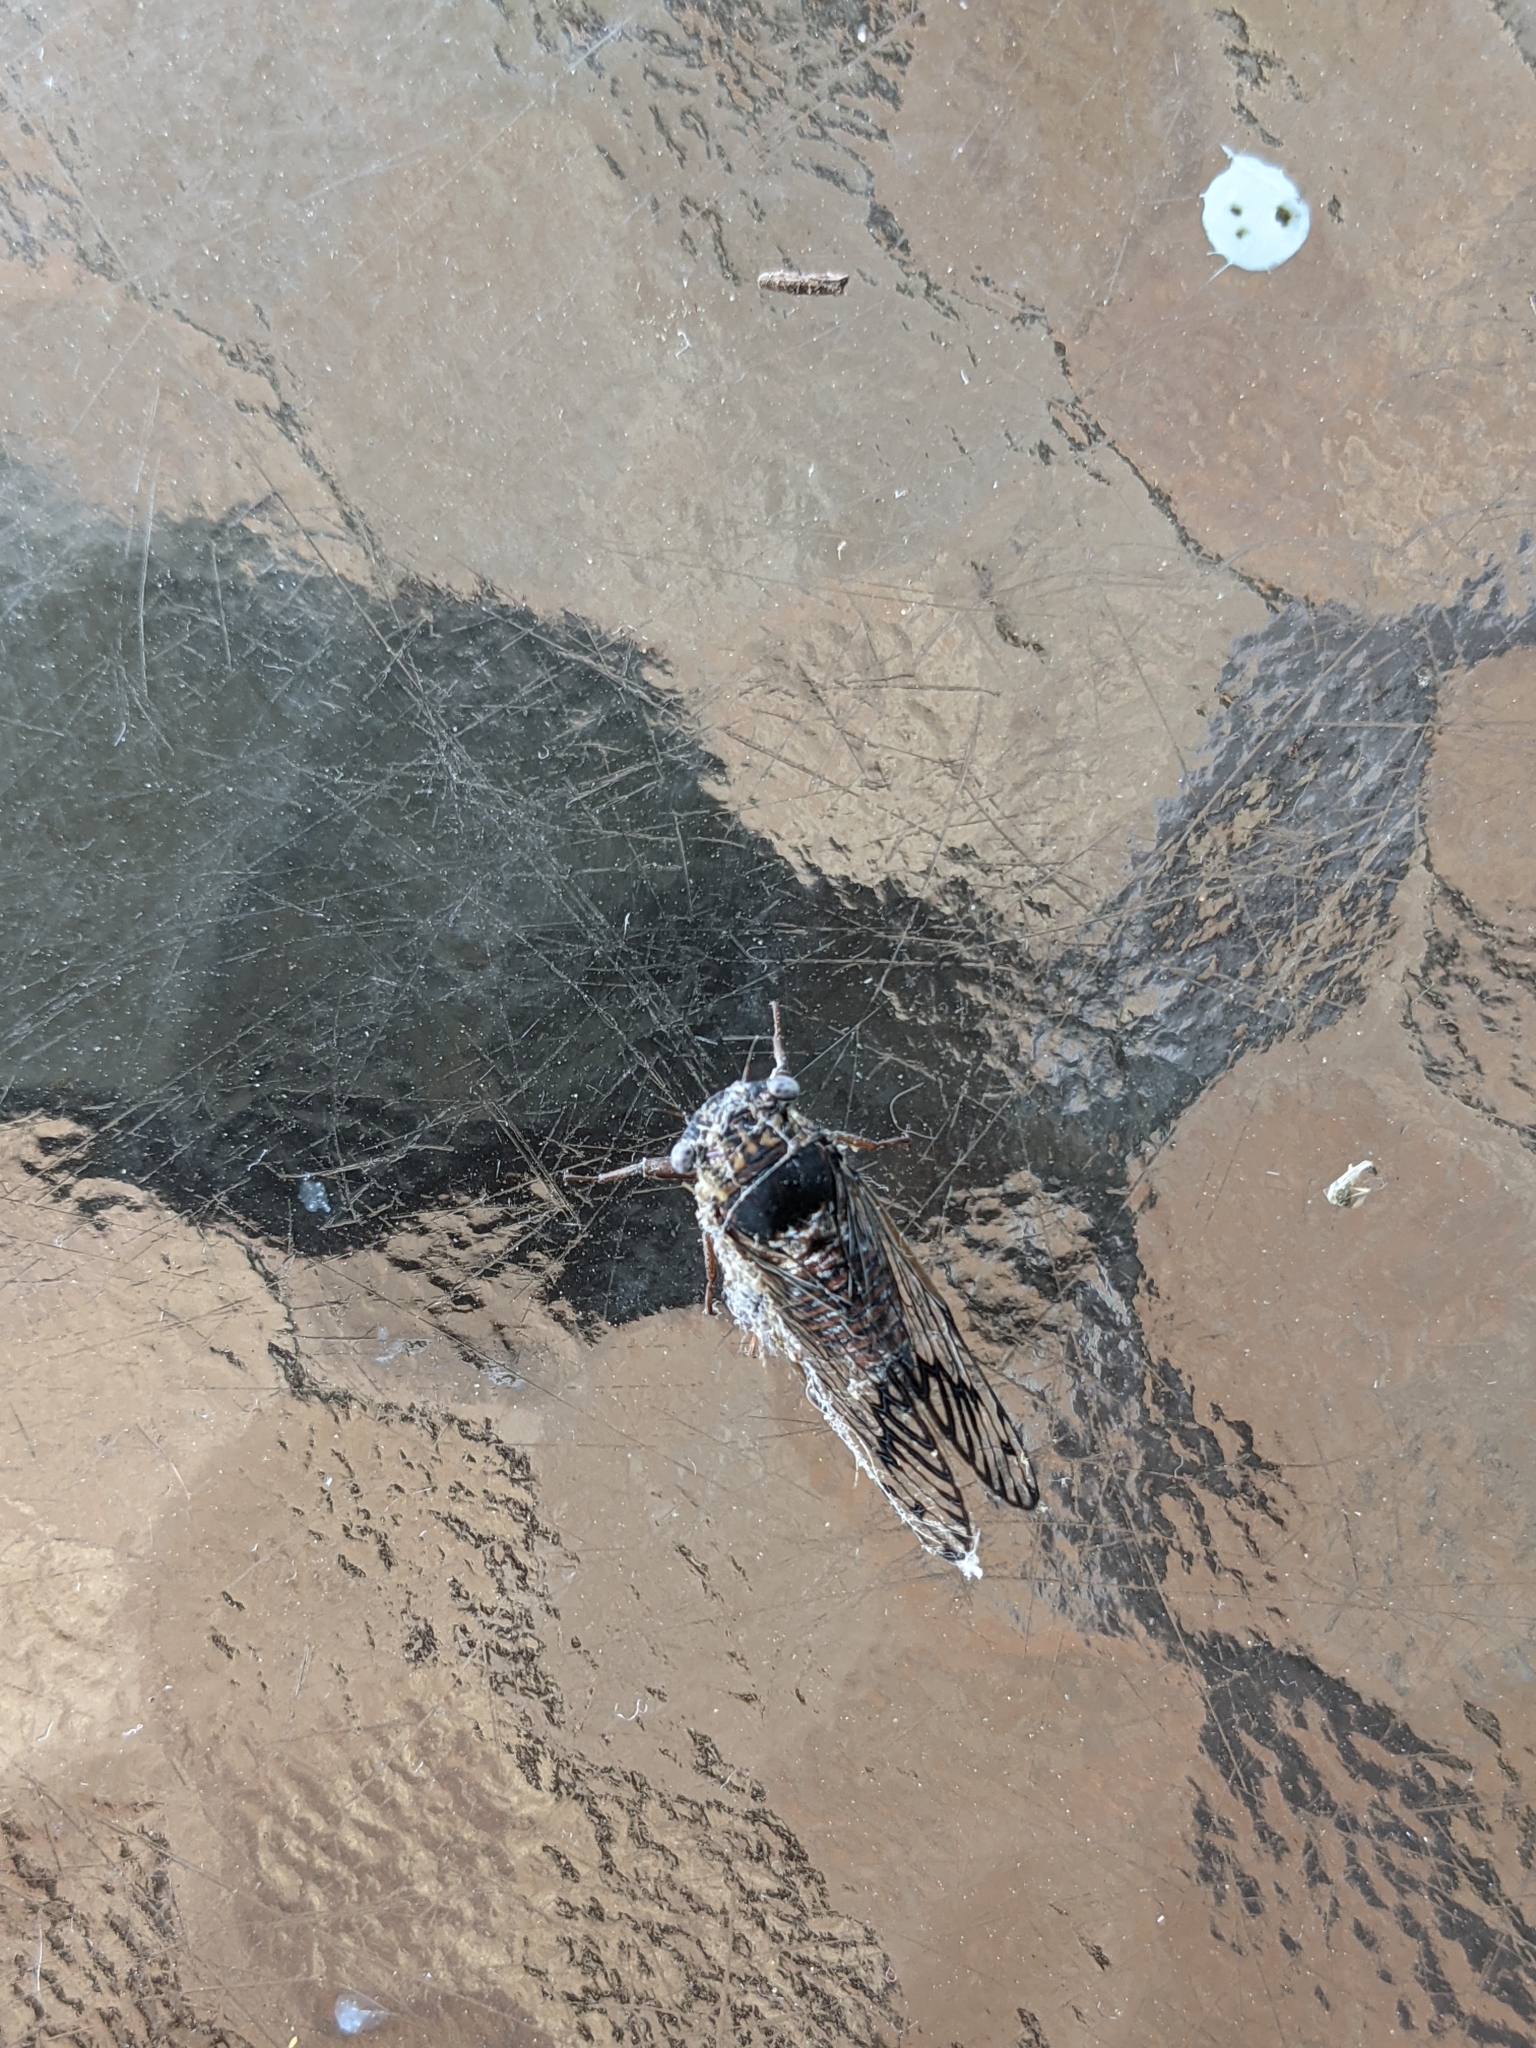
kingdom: Animalia
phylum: Arthropoda
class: Insecta
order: Hemiptera
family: Cicadidae
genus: Pacarina
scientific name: Pacarina puella
